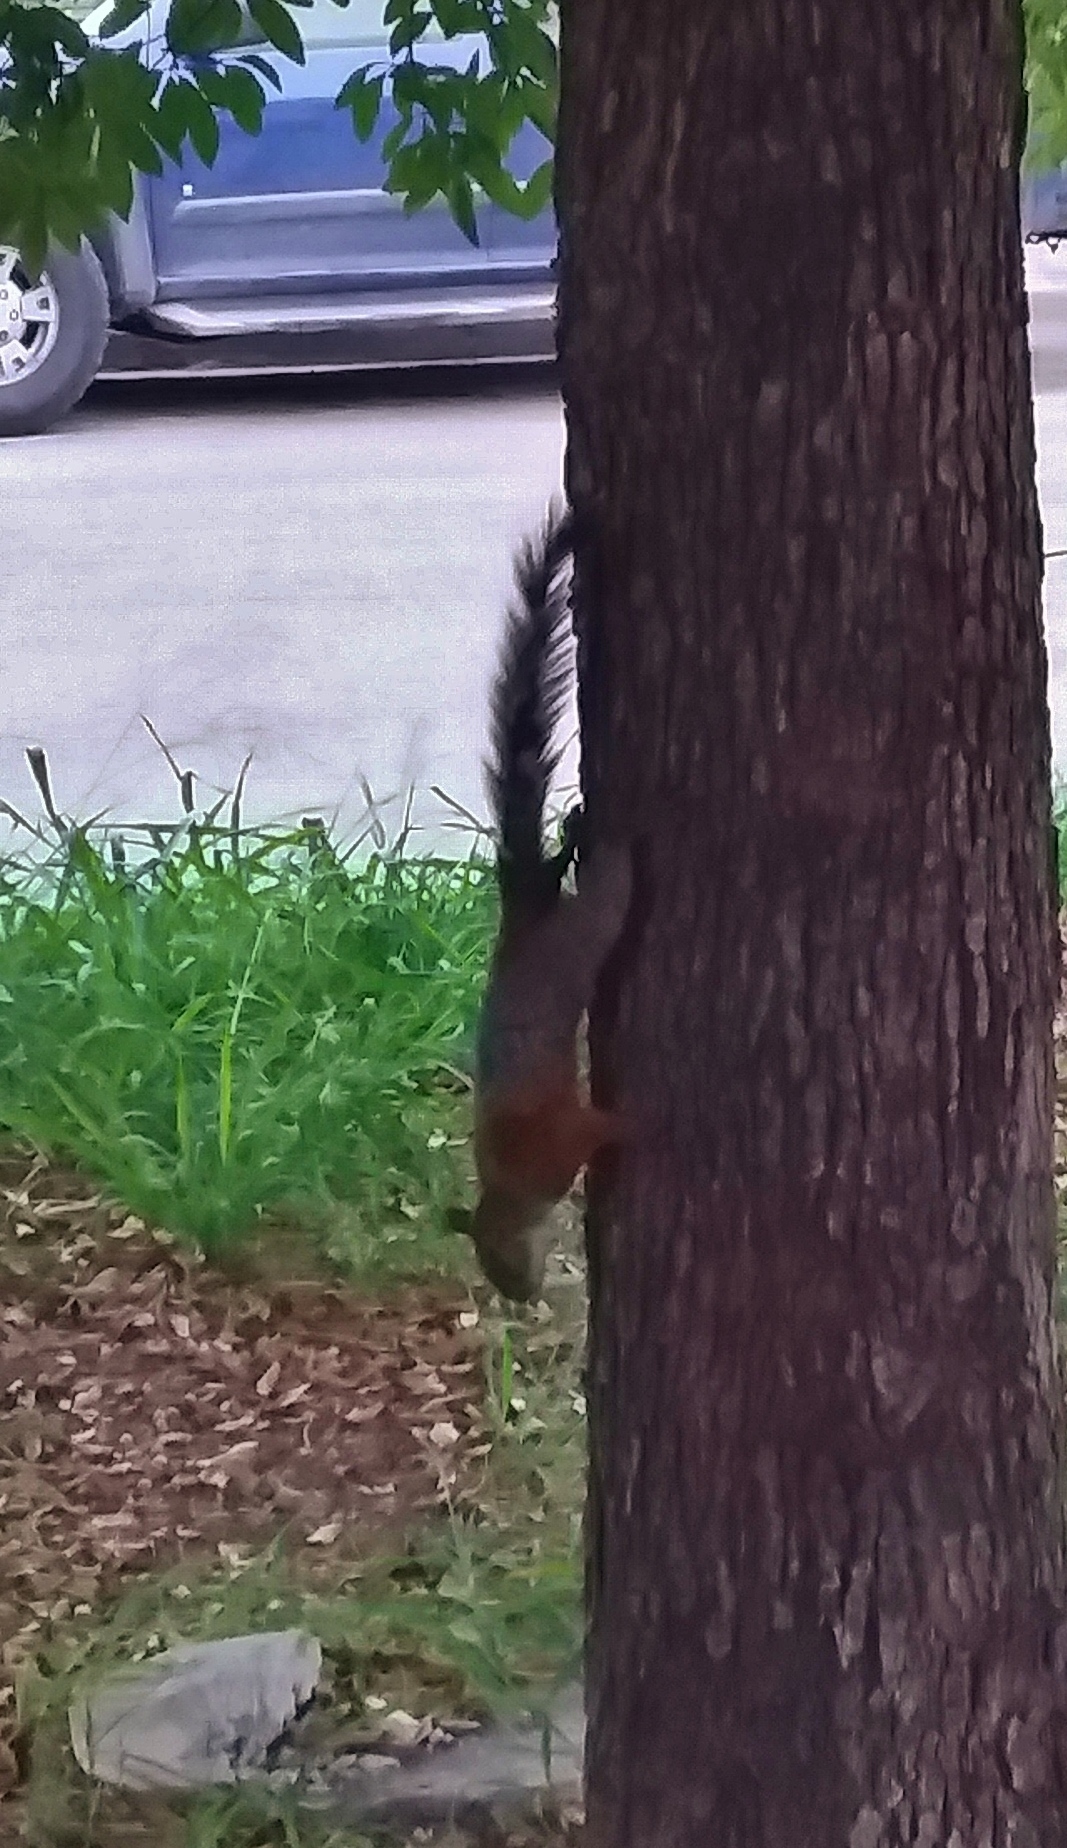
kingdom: Animalia
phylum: Chordata
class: Mammalia
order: Rodentia
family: Sciuridae
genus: Sciurus
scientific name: Sciurus aureogaster
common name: Red-bellied squirrel
